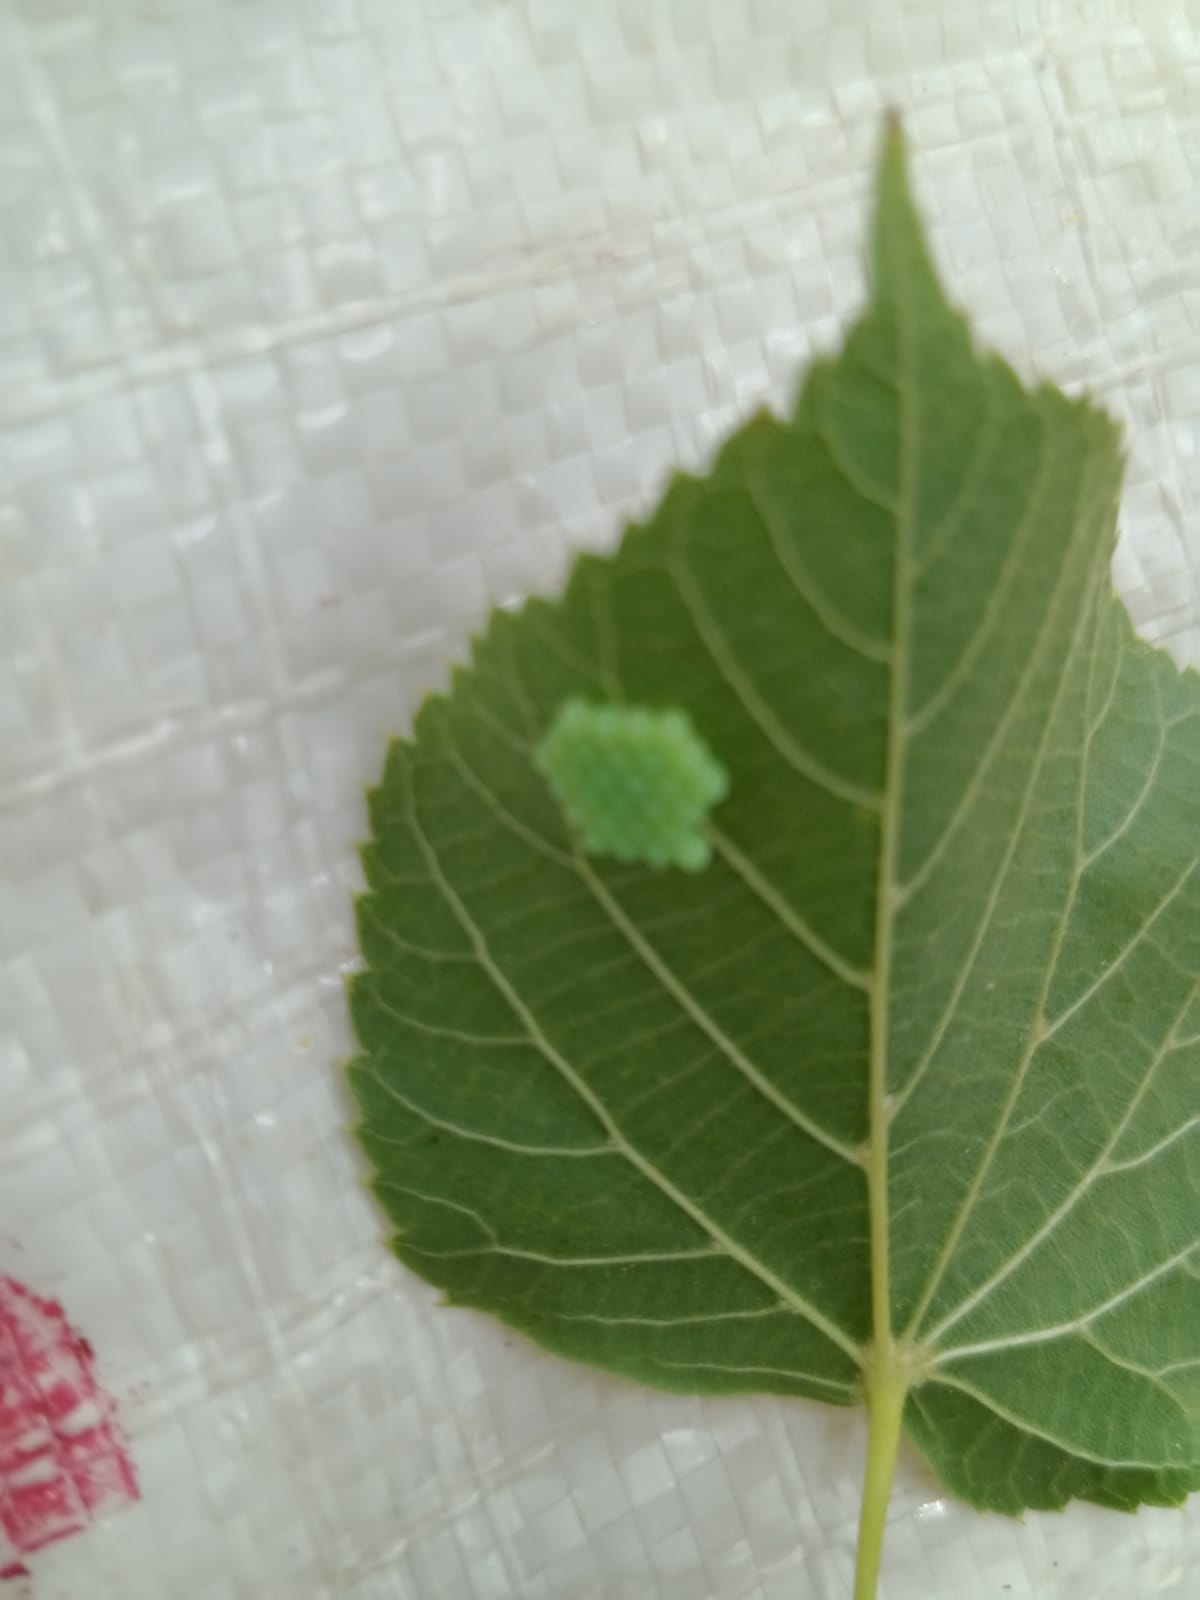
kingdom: Animalia
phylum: Arthropoda
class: Insecta
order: Hemiptera
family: Pentatomidae
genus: Palomena
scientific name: Palomena prasina
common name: Green shieldbug
